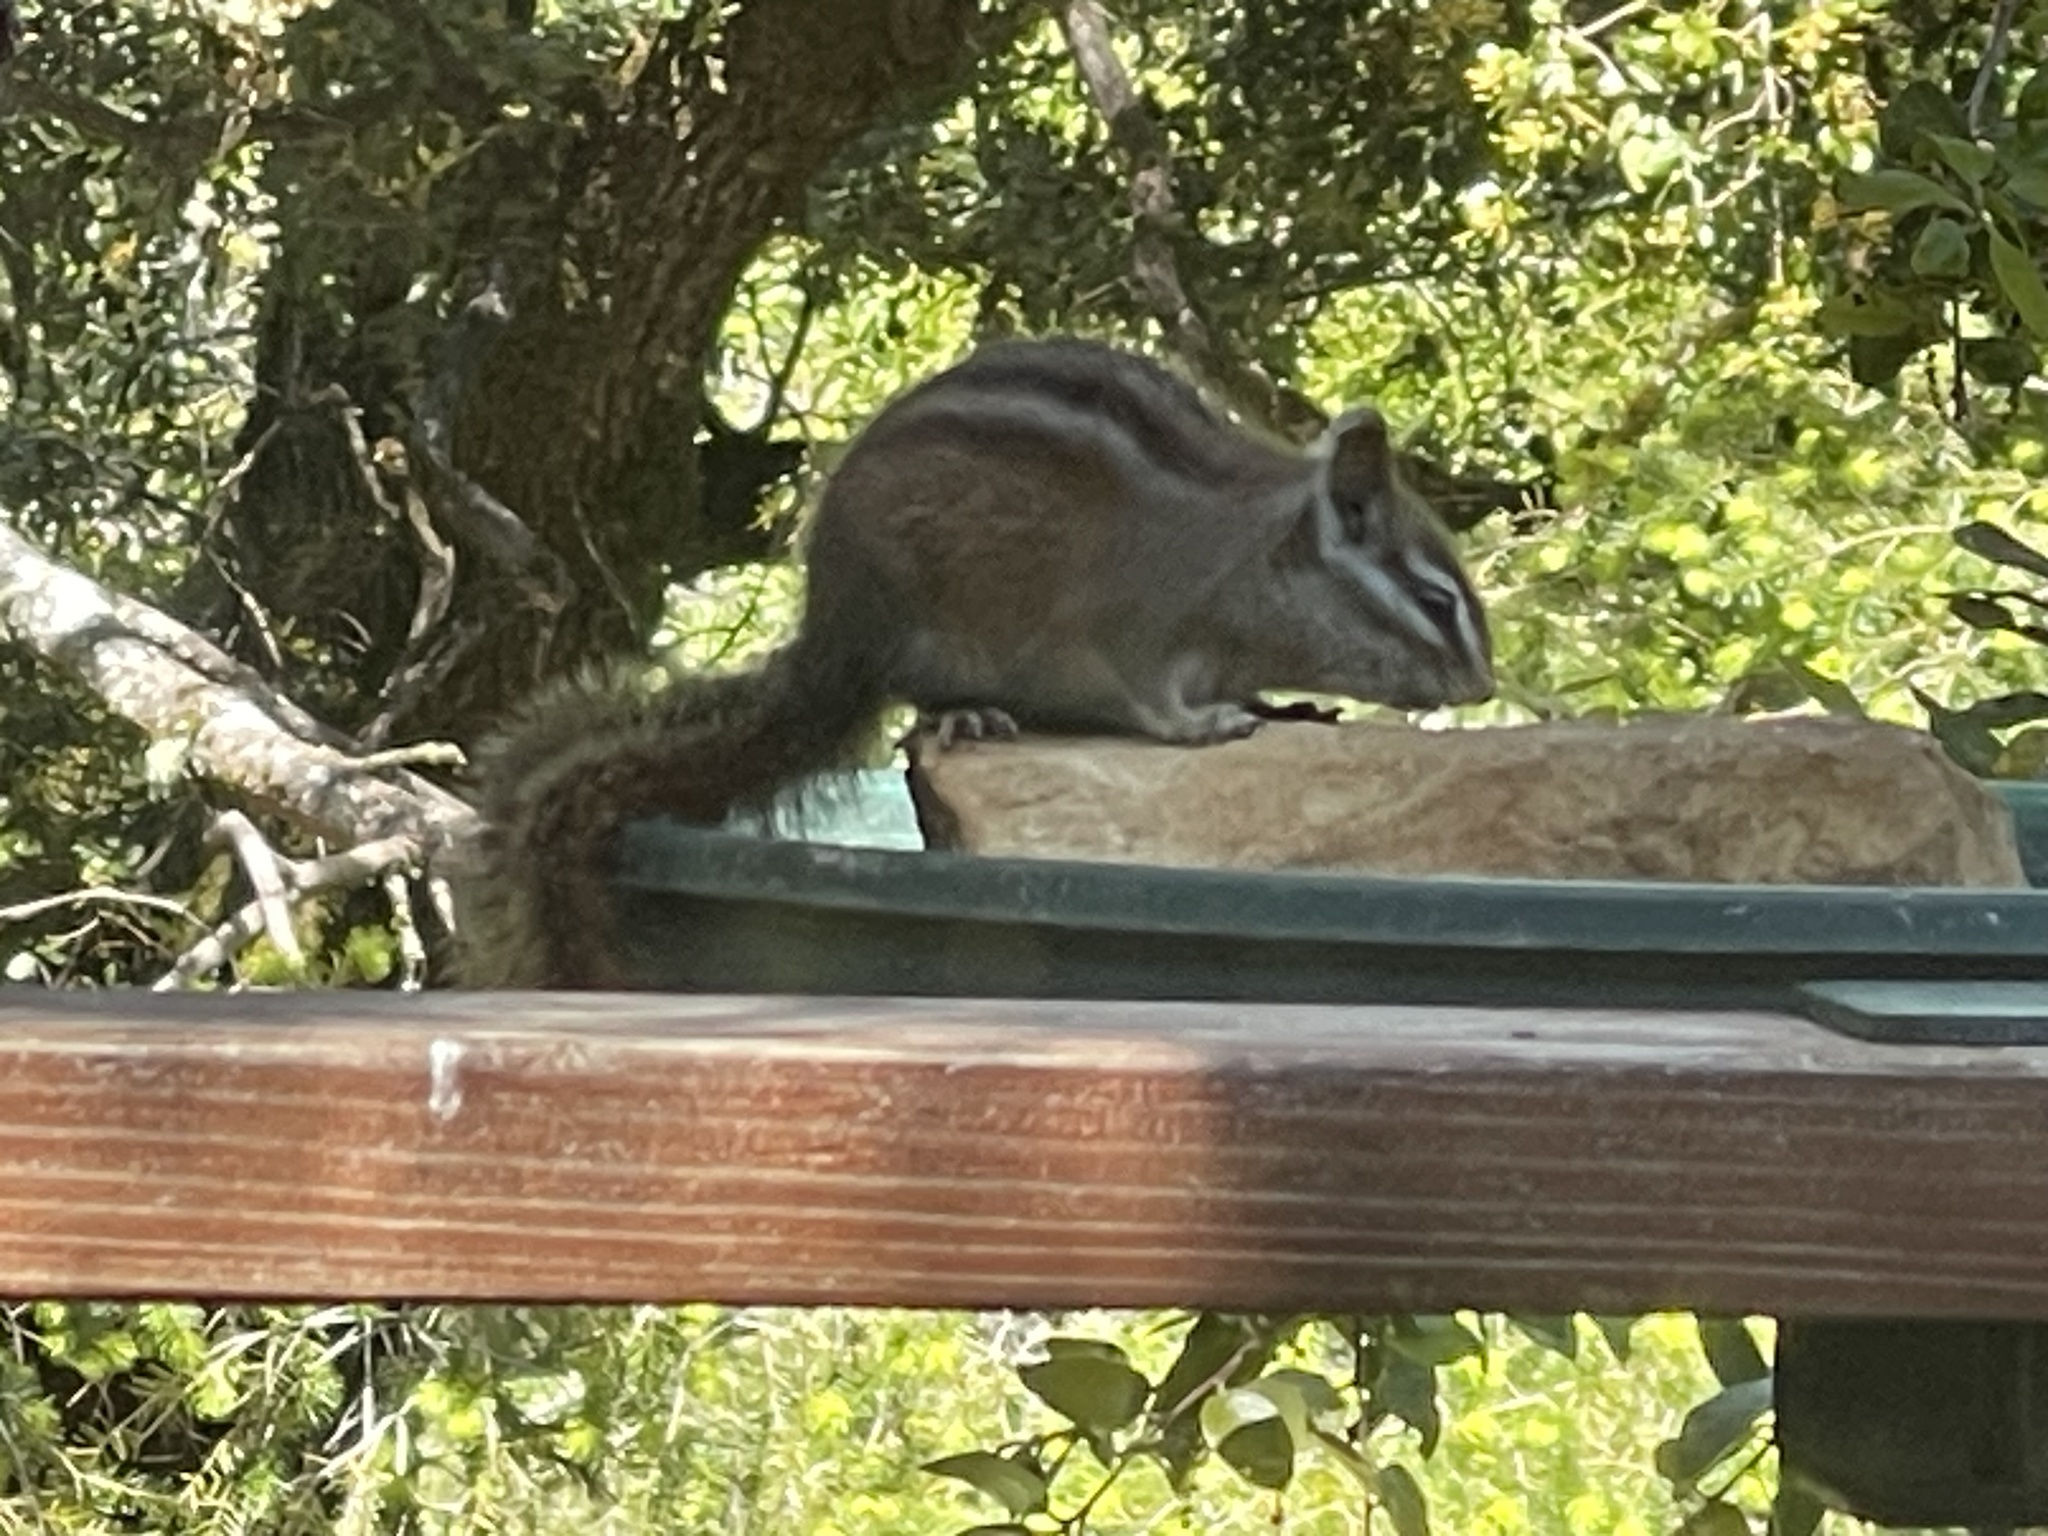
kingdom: Animalia
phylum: Chordata
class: Mammalia
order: Rodentia
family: Sciuridae
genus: Tamias
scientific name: Tamias merriami
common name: Merriam's chipmunk
